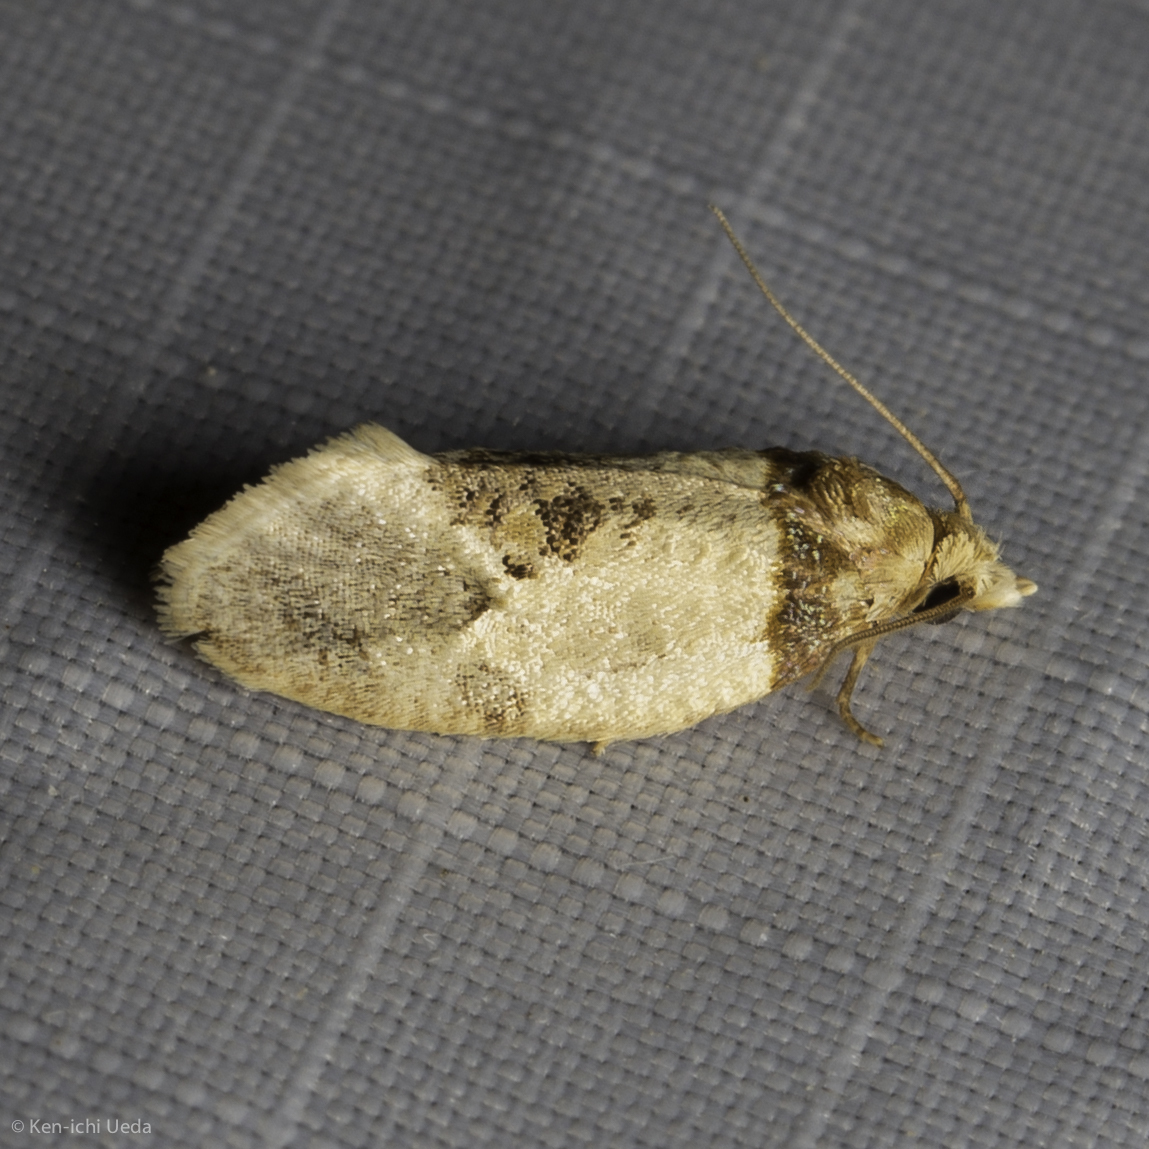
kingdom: Animalia
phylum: Arthropoda
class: Insecta
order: Lepidoptera
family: Tortricidae
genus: Henricus
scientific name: Henricus umbrabasana
